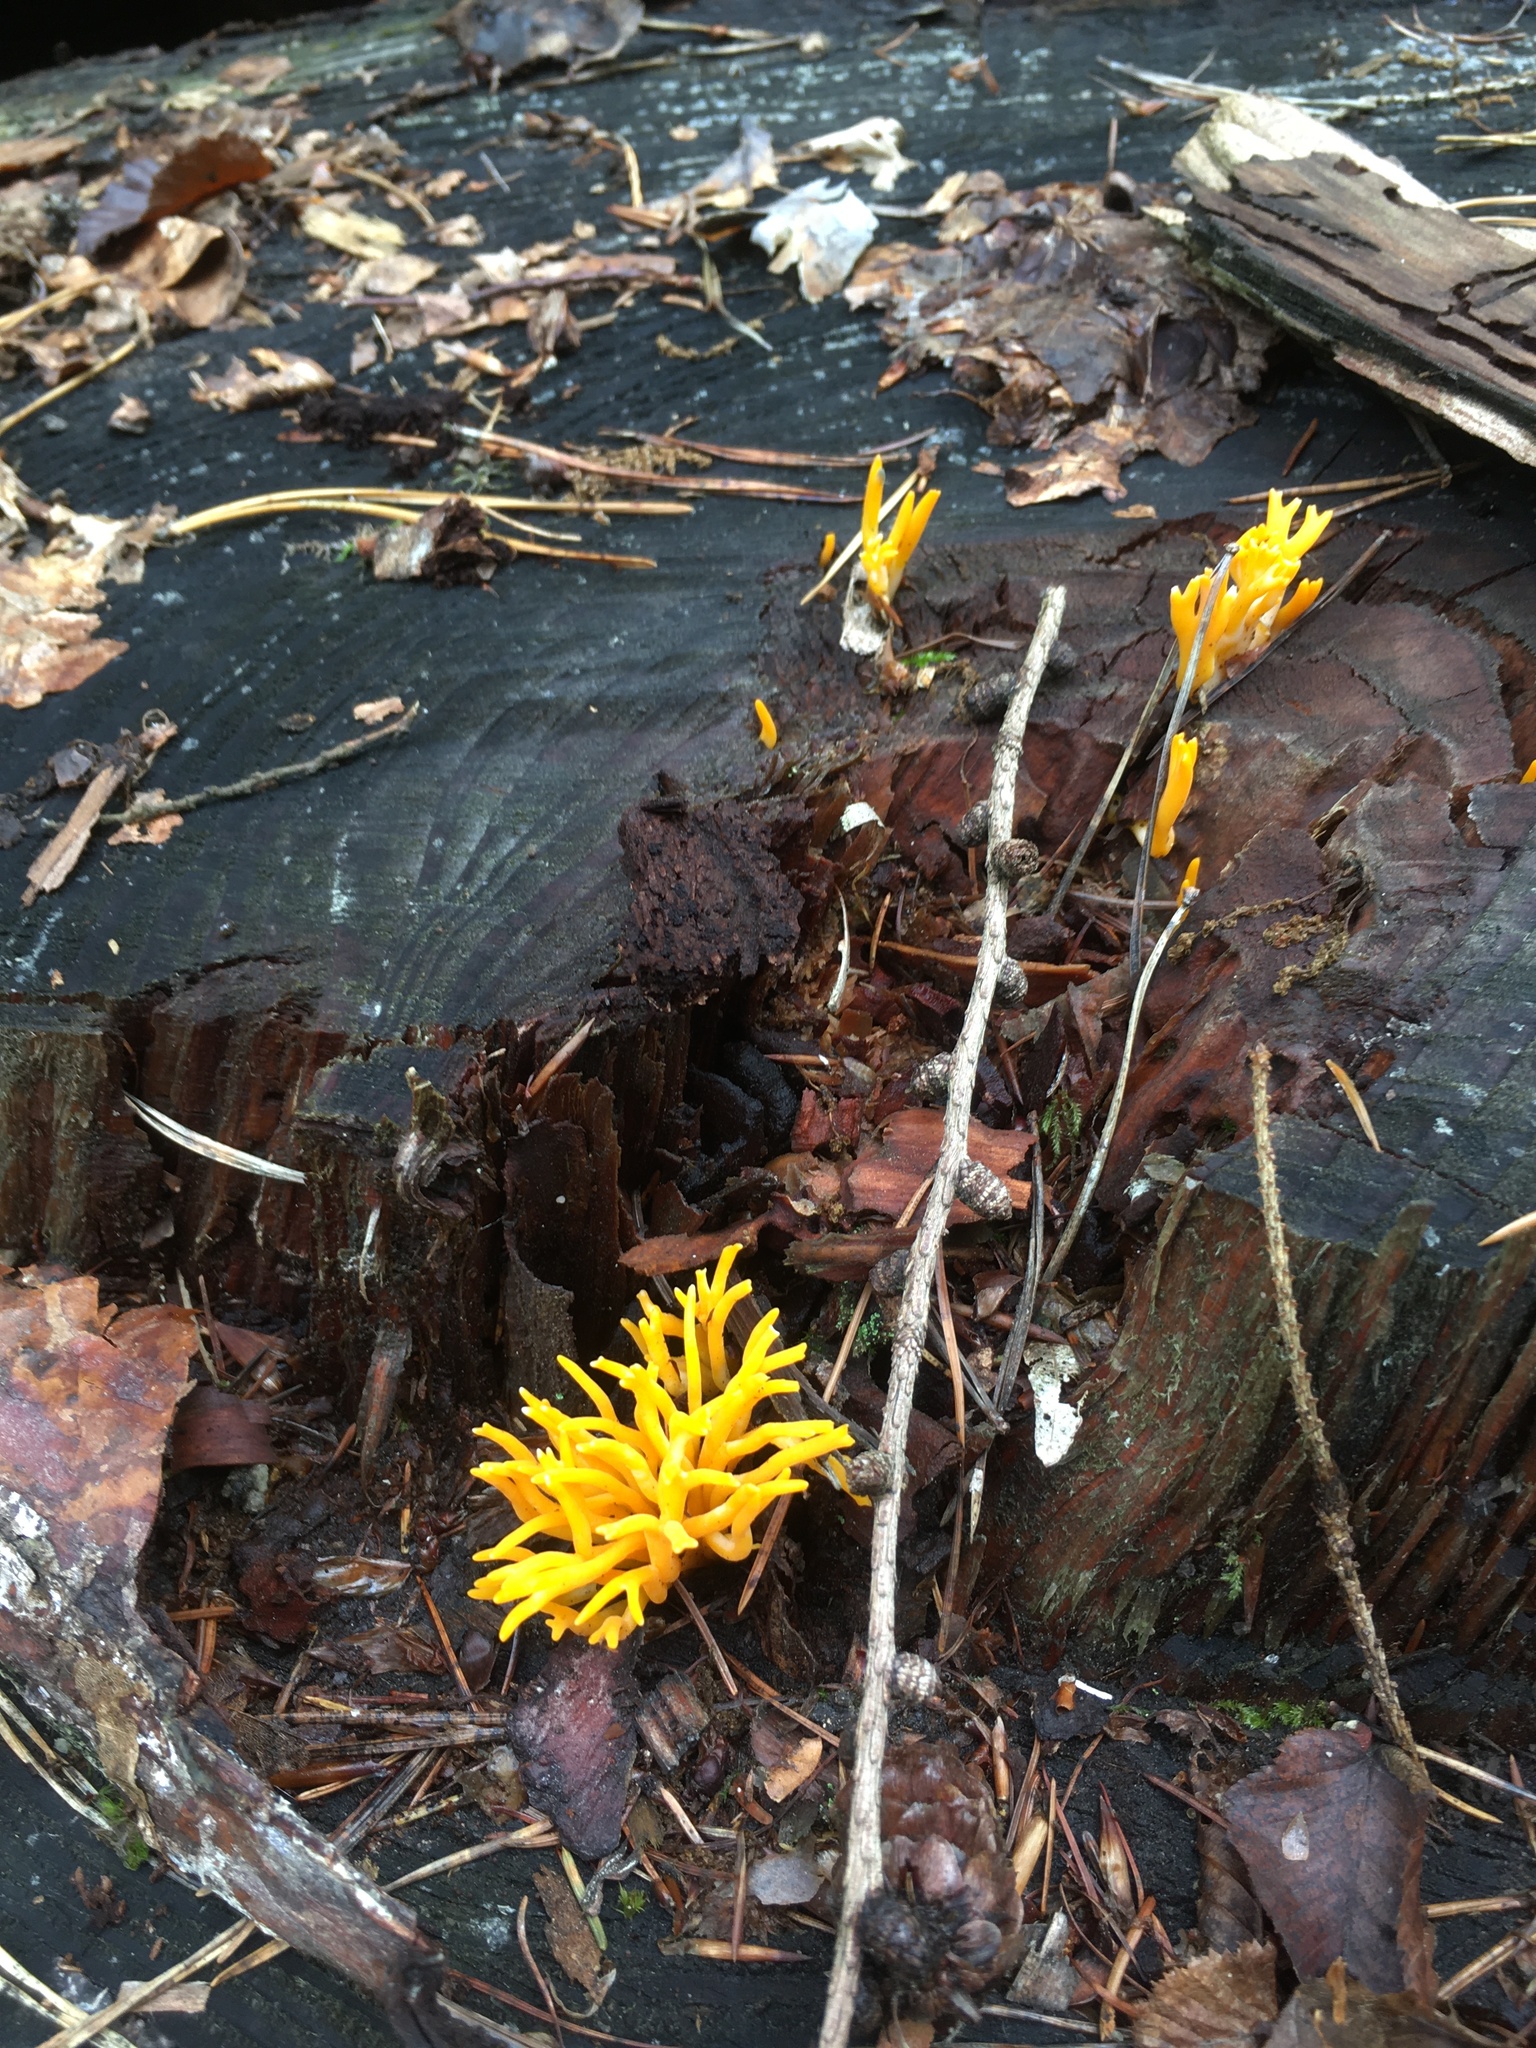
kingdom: Fungi
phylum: Basidiomycota
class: Dacrymycetes
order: Dacrymycetales
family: Dacrymycetaceae
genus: Calocera
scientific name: Calocera viscosa
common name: Yellow stagshorn
